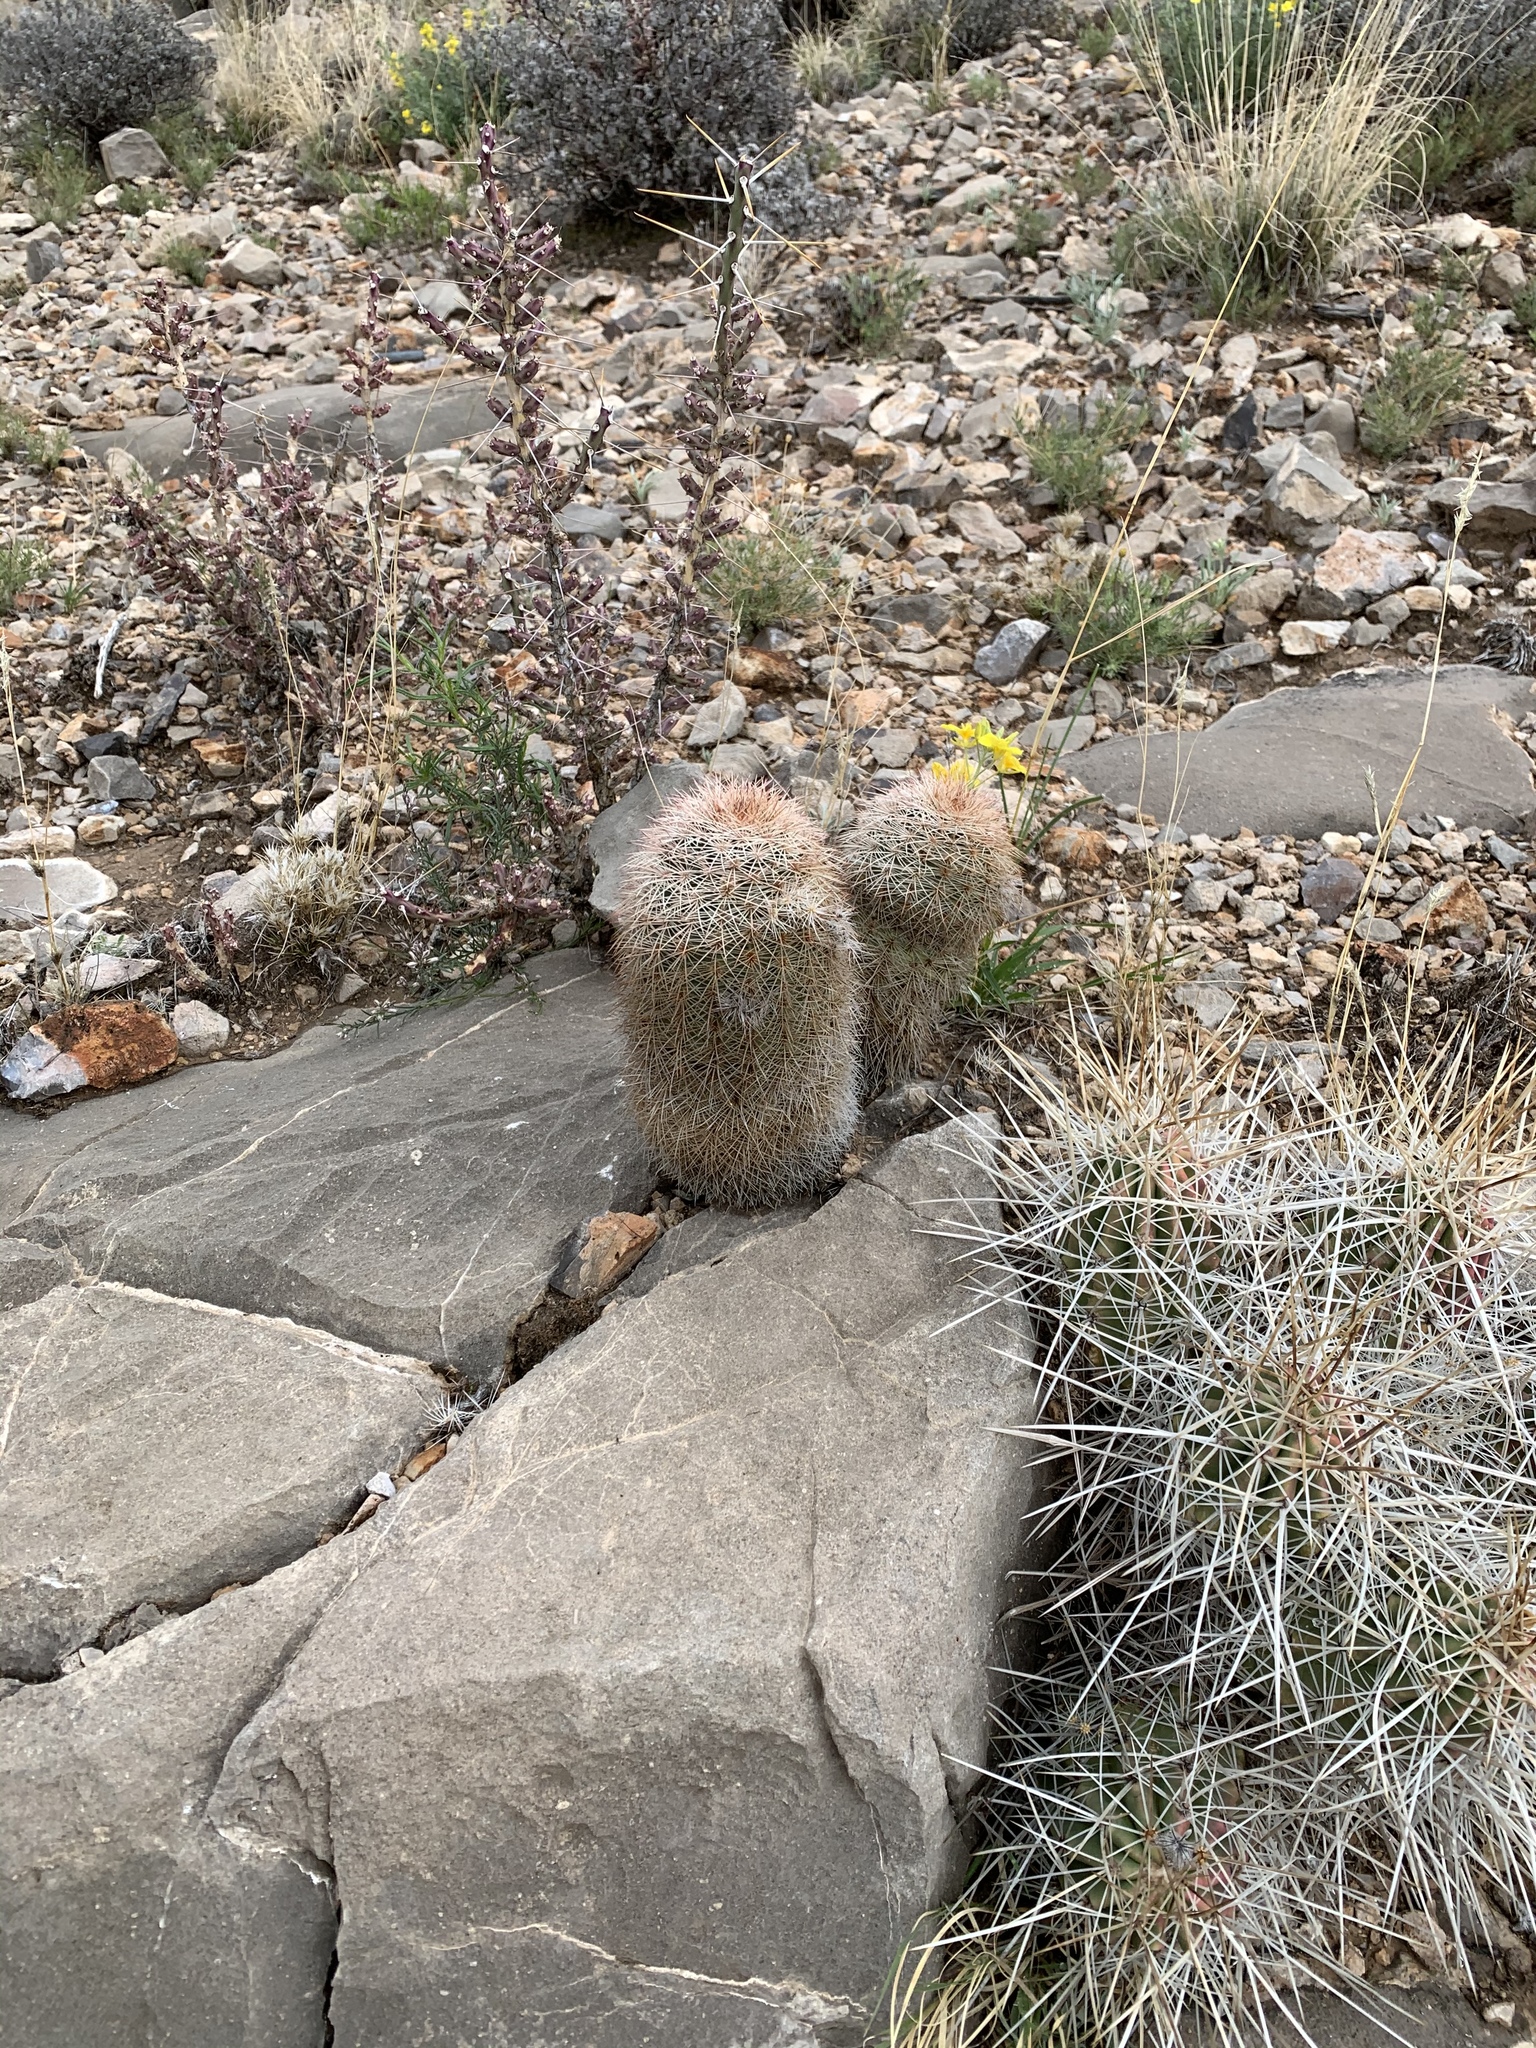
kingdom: Plantae
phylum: Tracheophyta
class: Magnoliopsida
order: Caryophyllales
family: Cactaceae
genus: Echinocereus
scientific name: Echinocereus dasyacanthus
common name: Spiny hedgehog cactus
